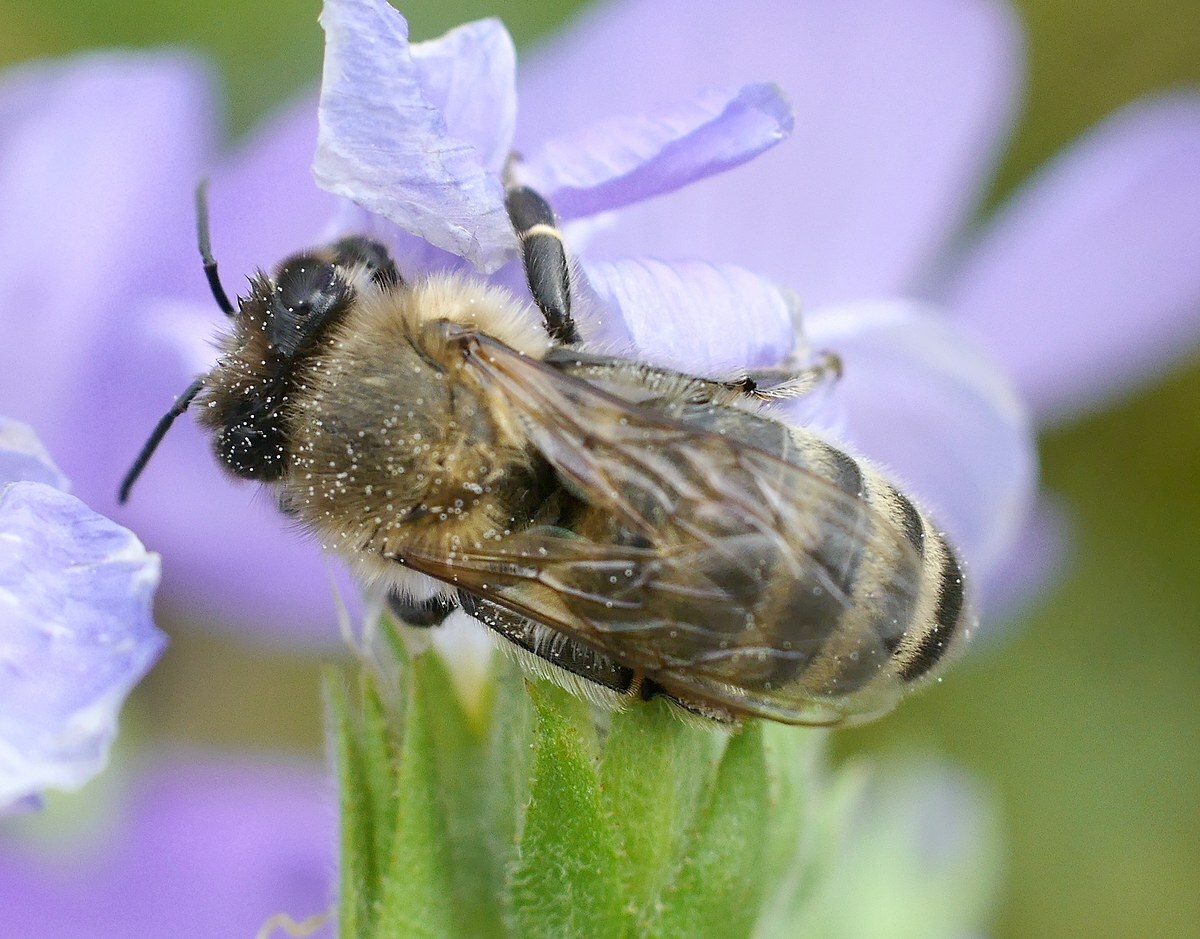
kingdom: Animalia
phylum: Arthropoda
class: Insecta
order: Hymenoptera
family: Apidae
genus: Apis
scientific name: Apis mellifera
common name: Honey bee
